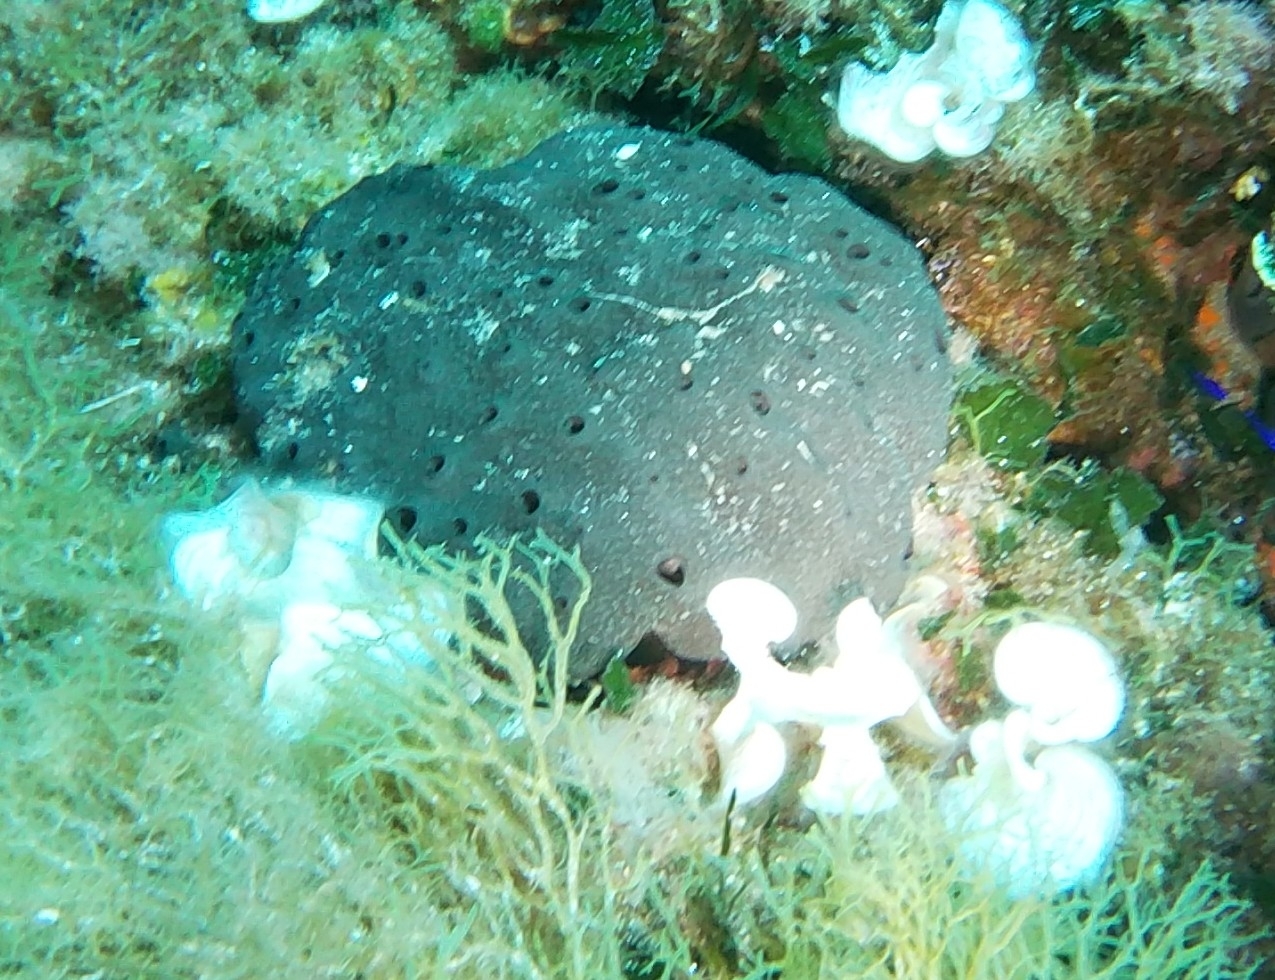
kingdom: Animalia
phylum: Porifera
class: Demospongiae
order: Dictyoceratida
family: Spongiidae
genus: Spongia
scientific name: Spongia officinalis
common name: Turkey cup sponge
